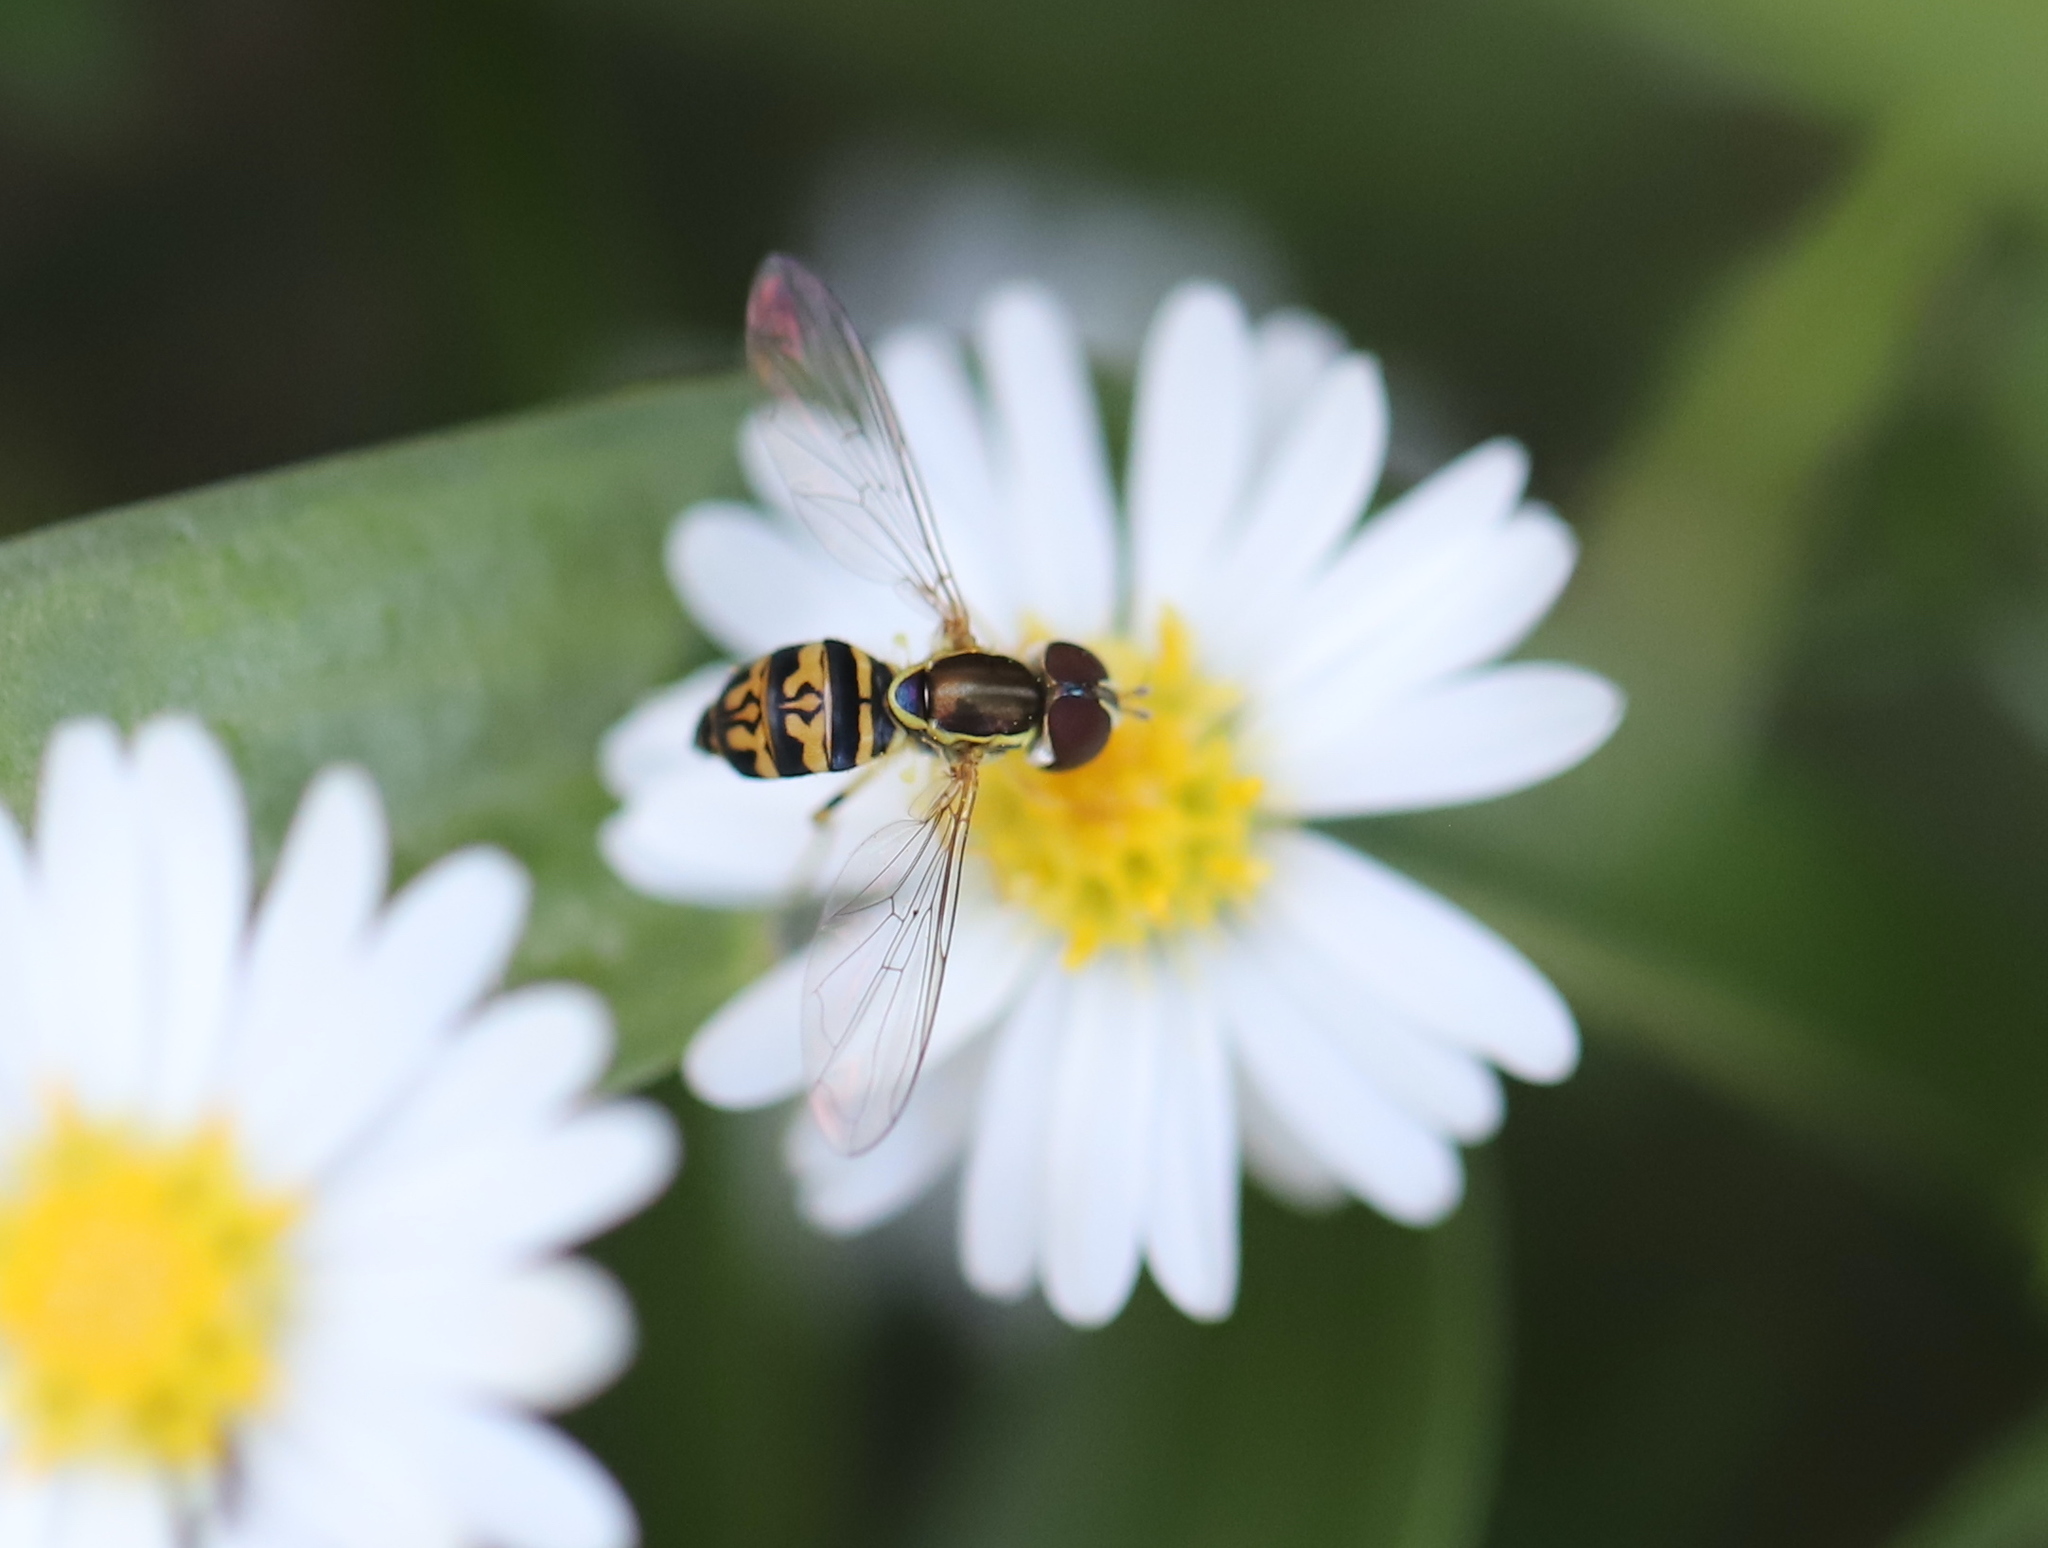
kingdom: Animalia
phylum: Arthropoda
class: Insecta
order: Diptera
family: Syrphidae
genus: Toxomerus
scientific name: Toxomerus geminatus
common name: Eastern calligrapher
